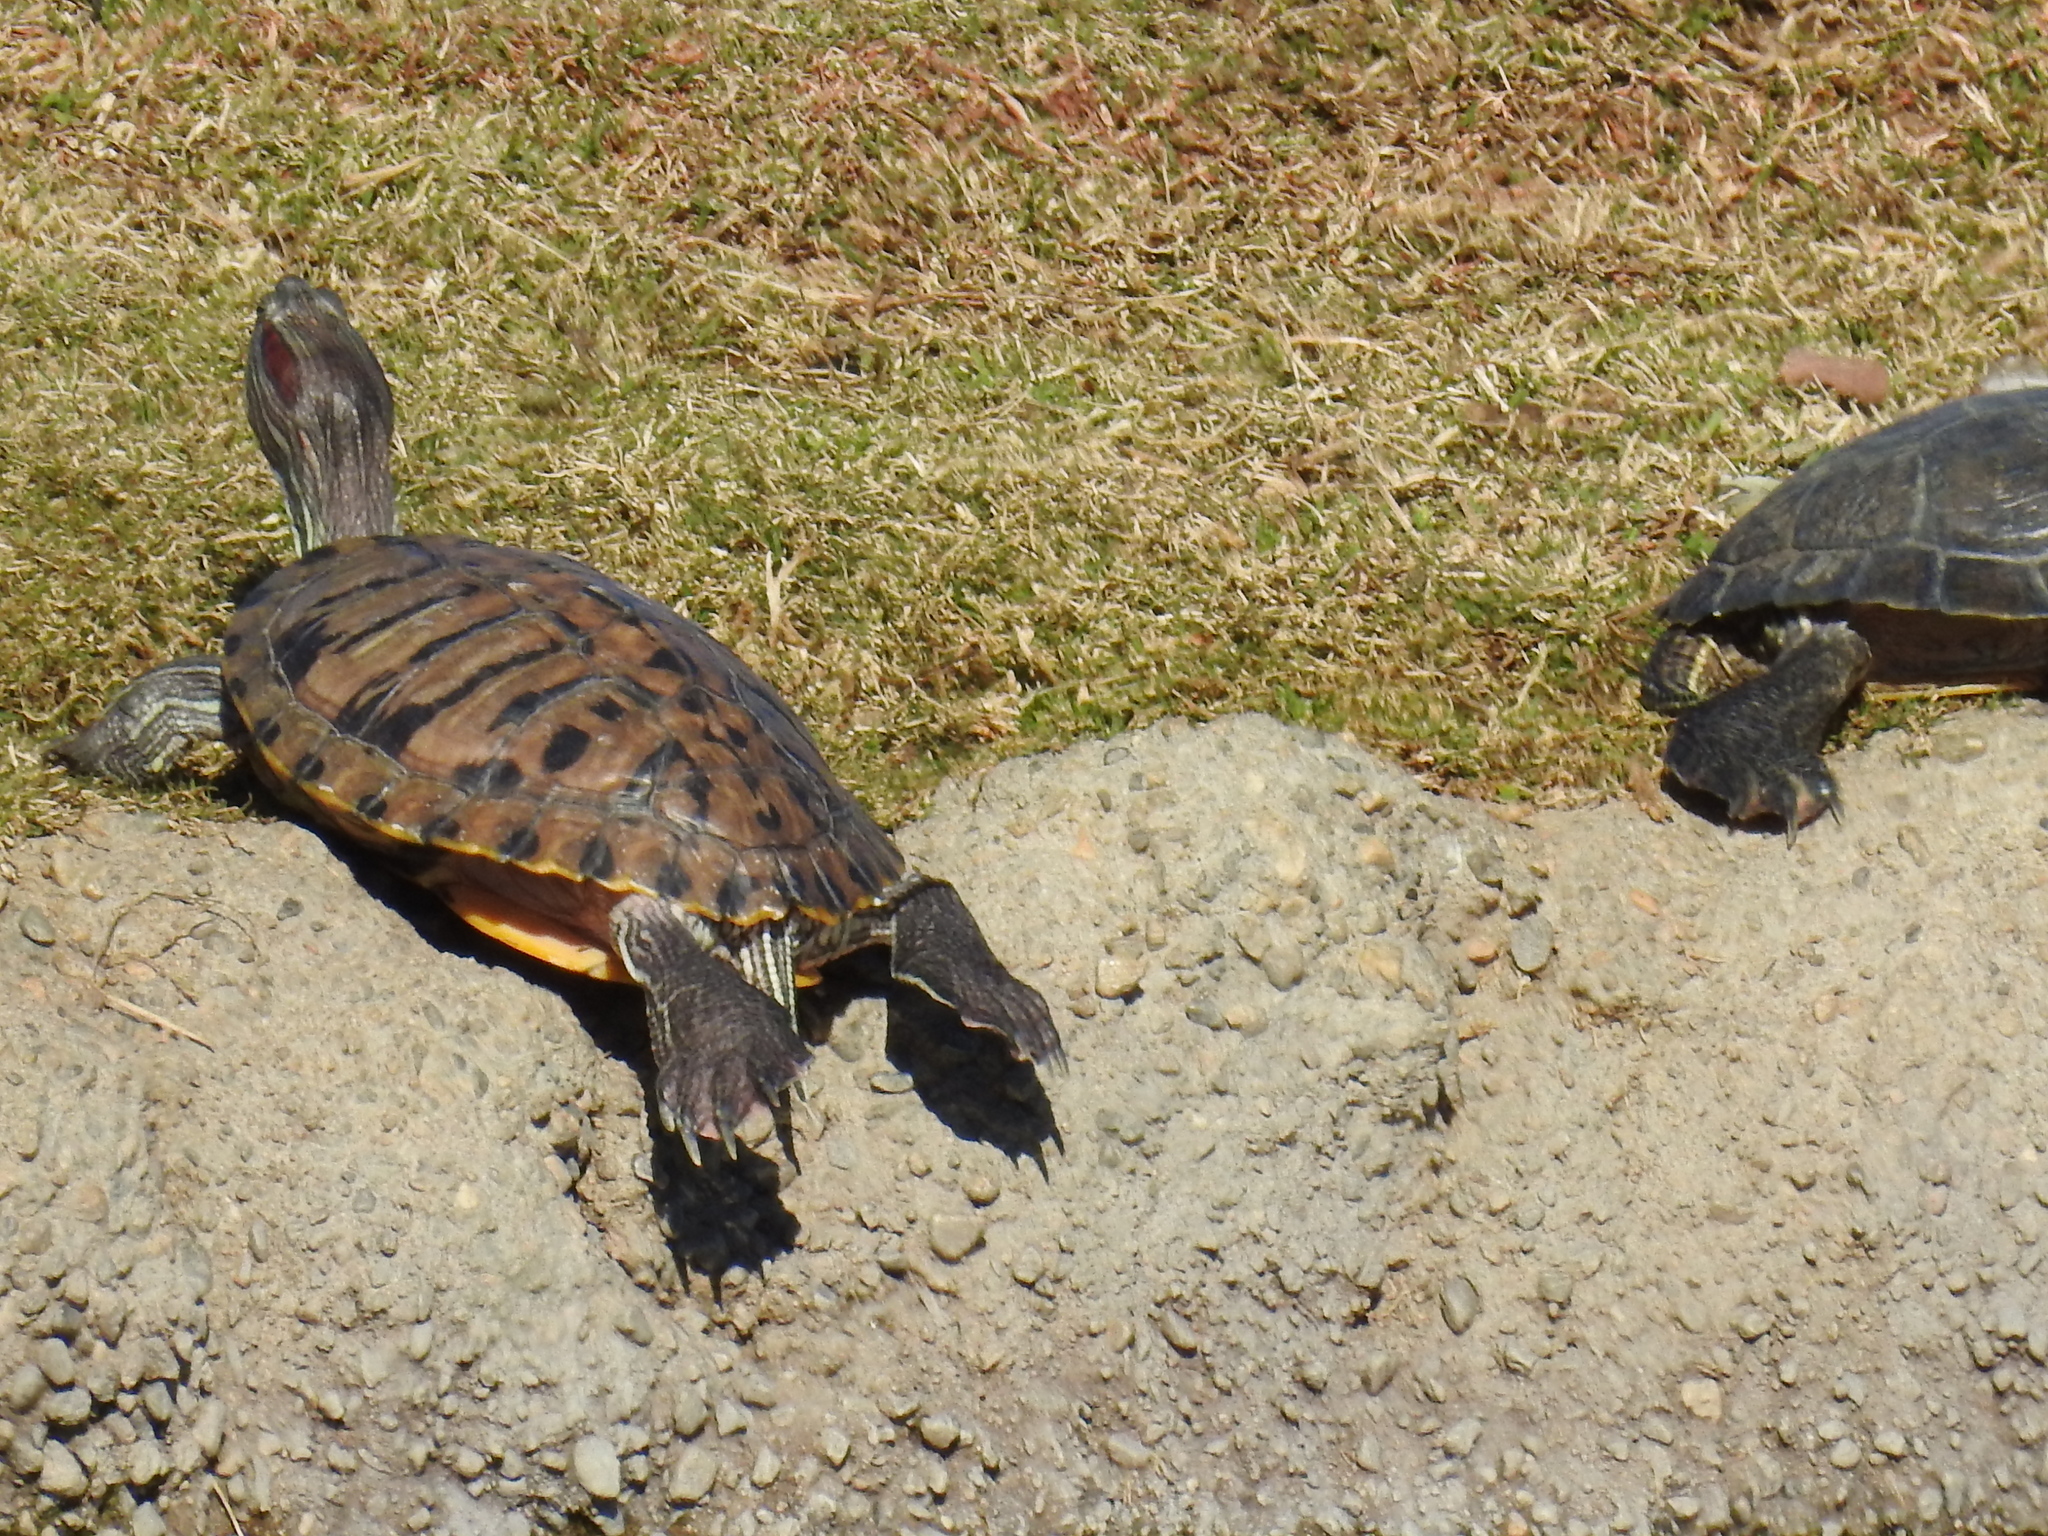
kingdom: Animalia
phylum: Chordata
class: Testudines
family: Emydidae
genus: Trachemys
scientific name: Trachemys scripta
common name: Slider
